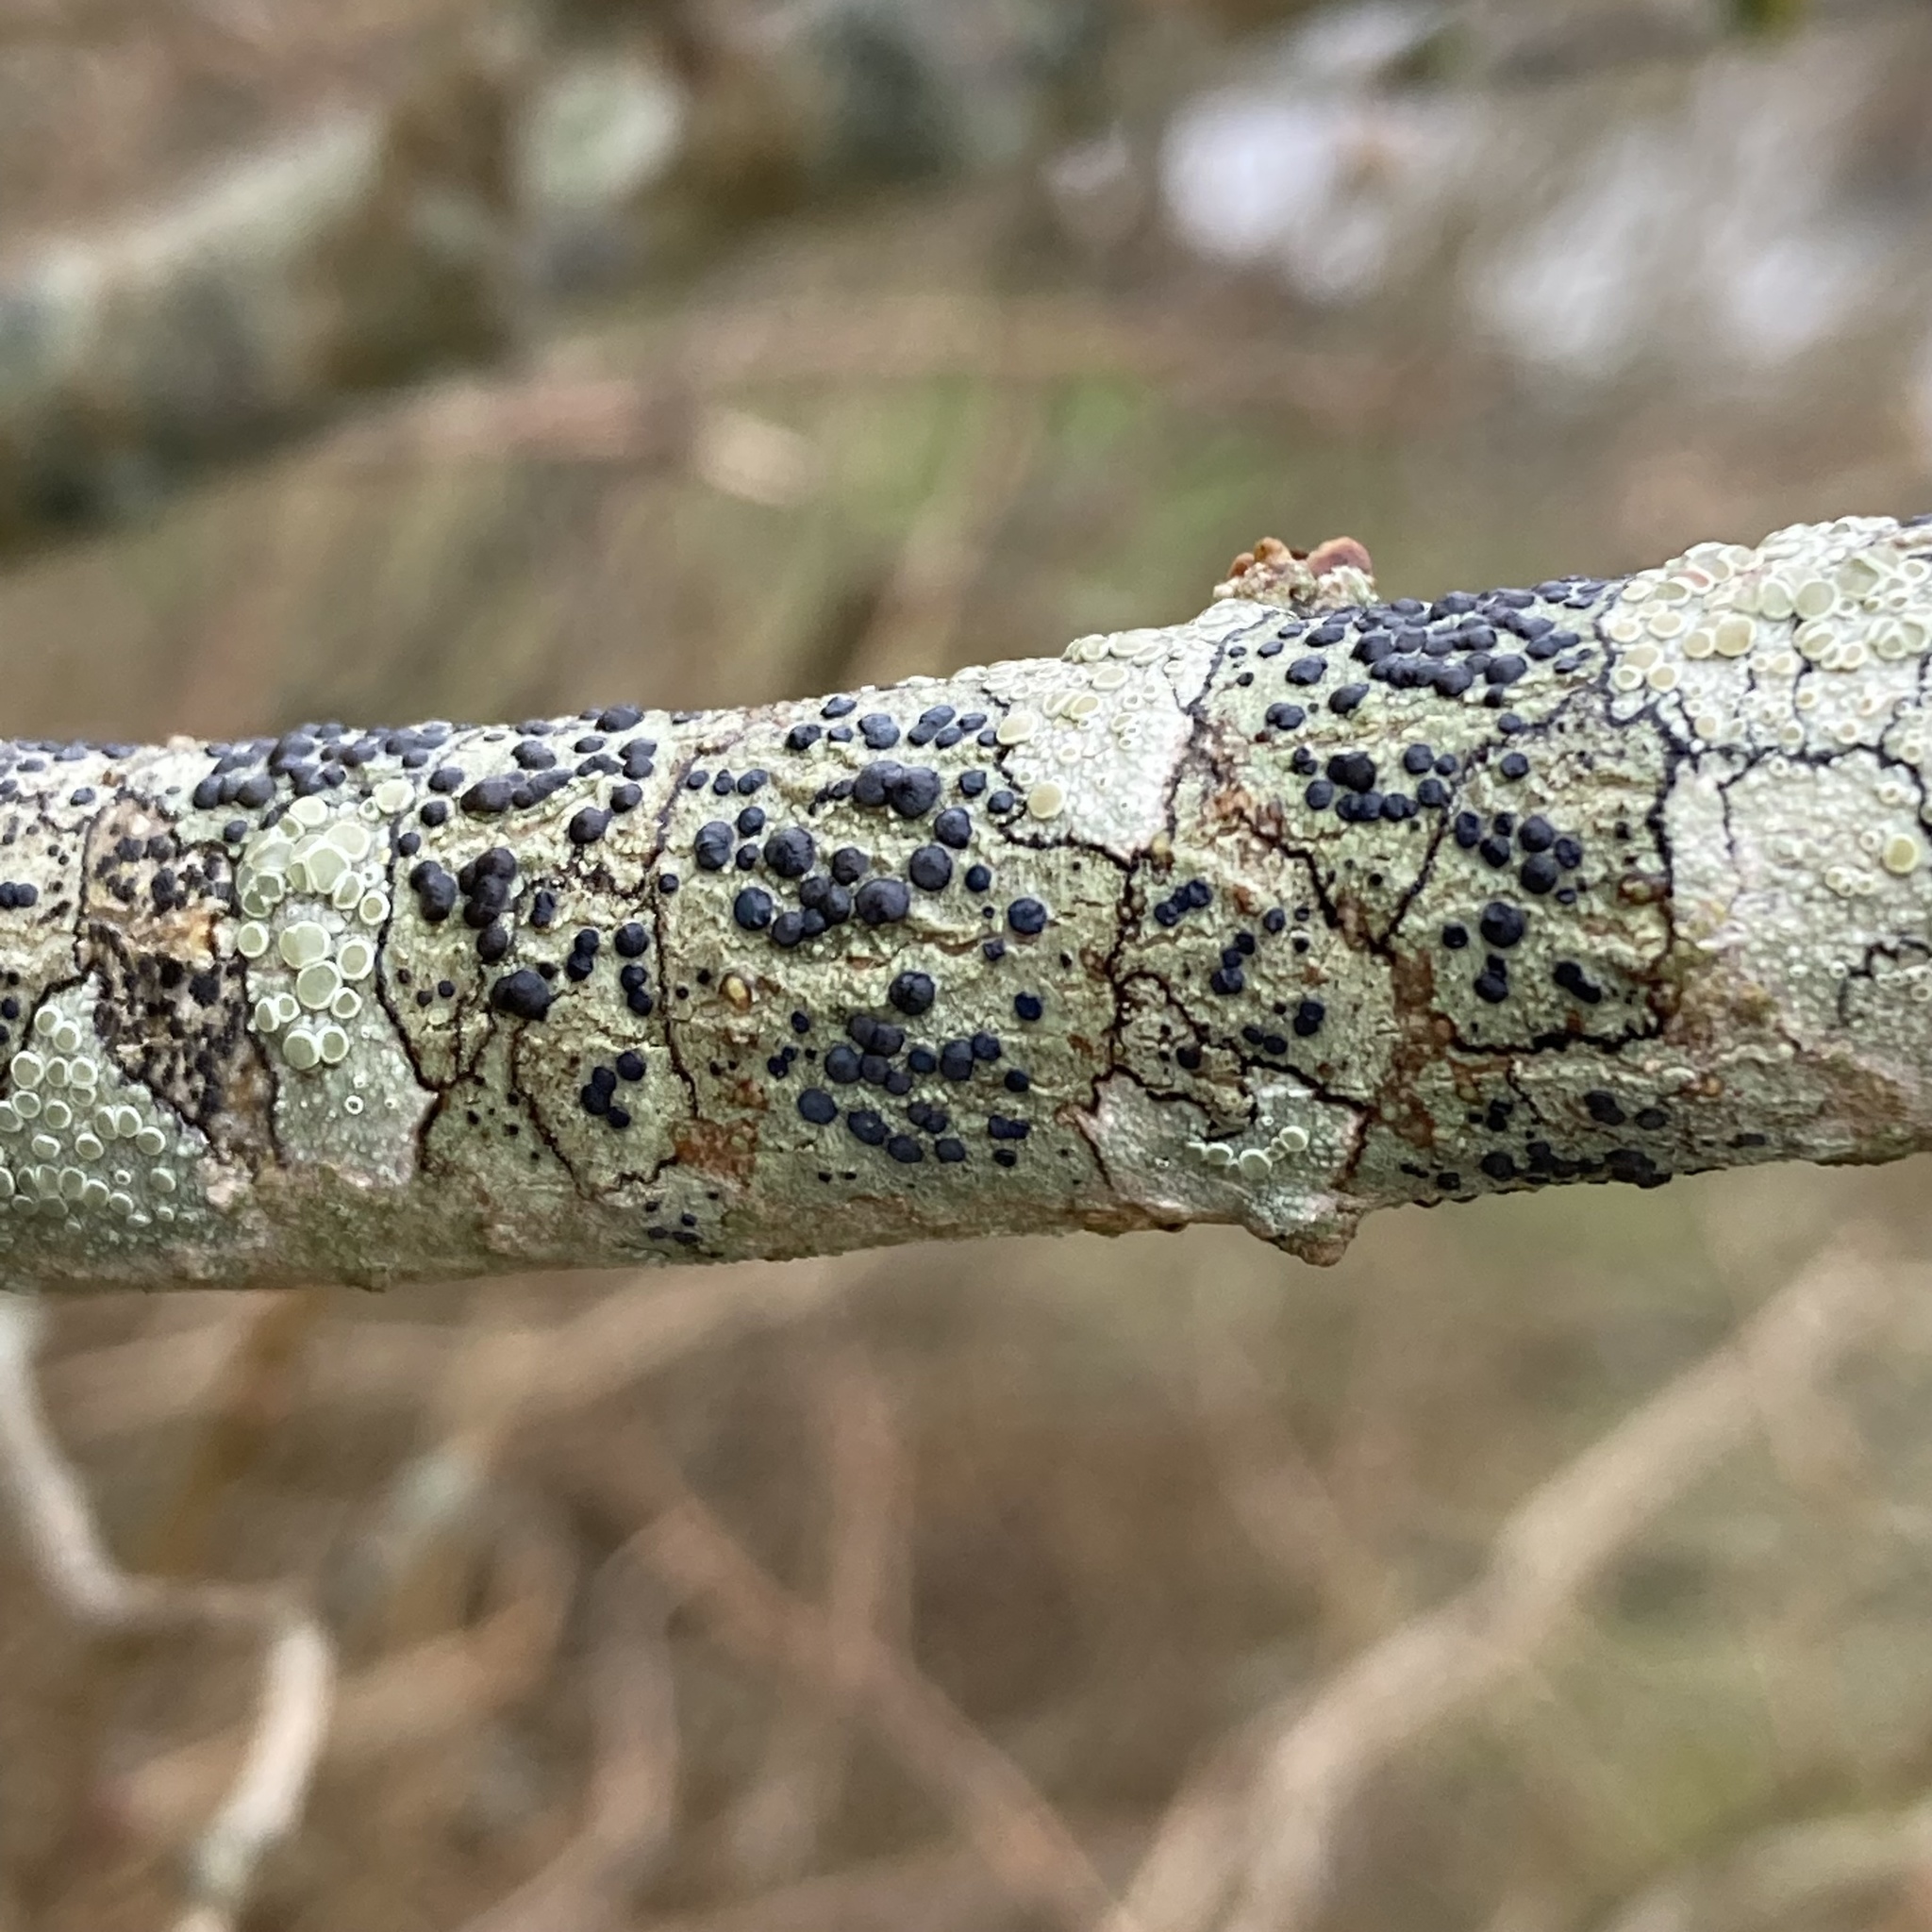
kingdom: Fungi
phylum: Ascomycota
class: Lecanoromycetes
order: Lecanorales
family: Lecanoraceae
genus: Lecidella
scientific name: Lecidella elaeochroma
